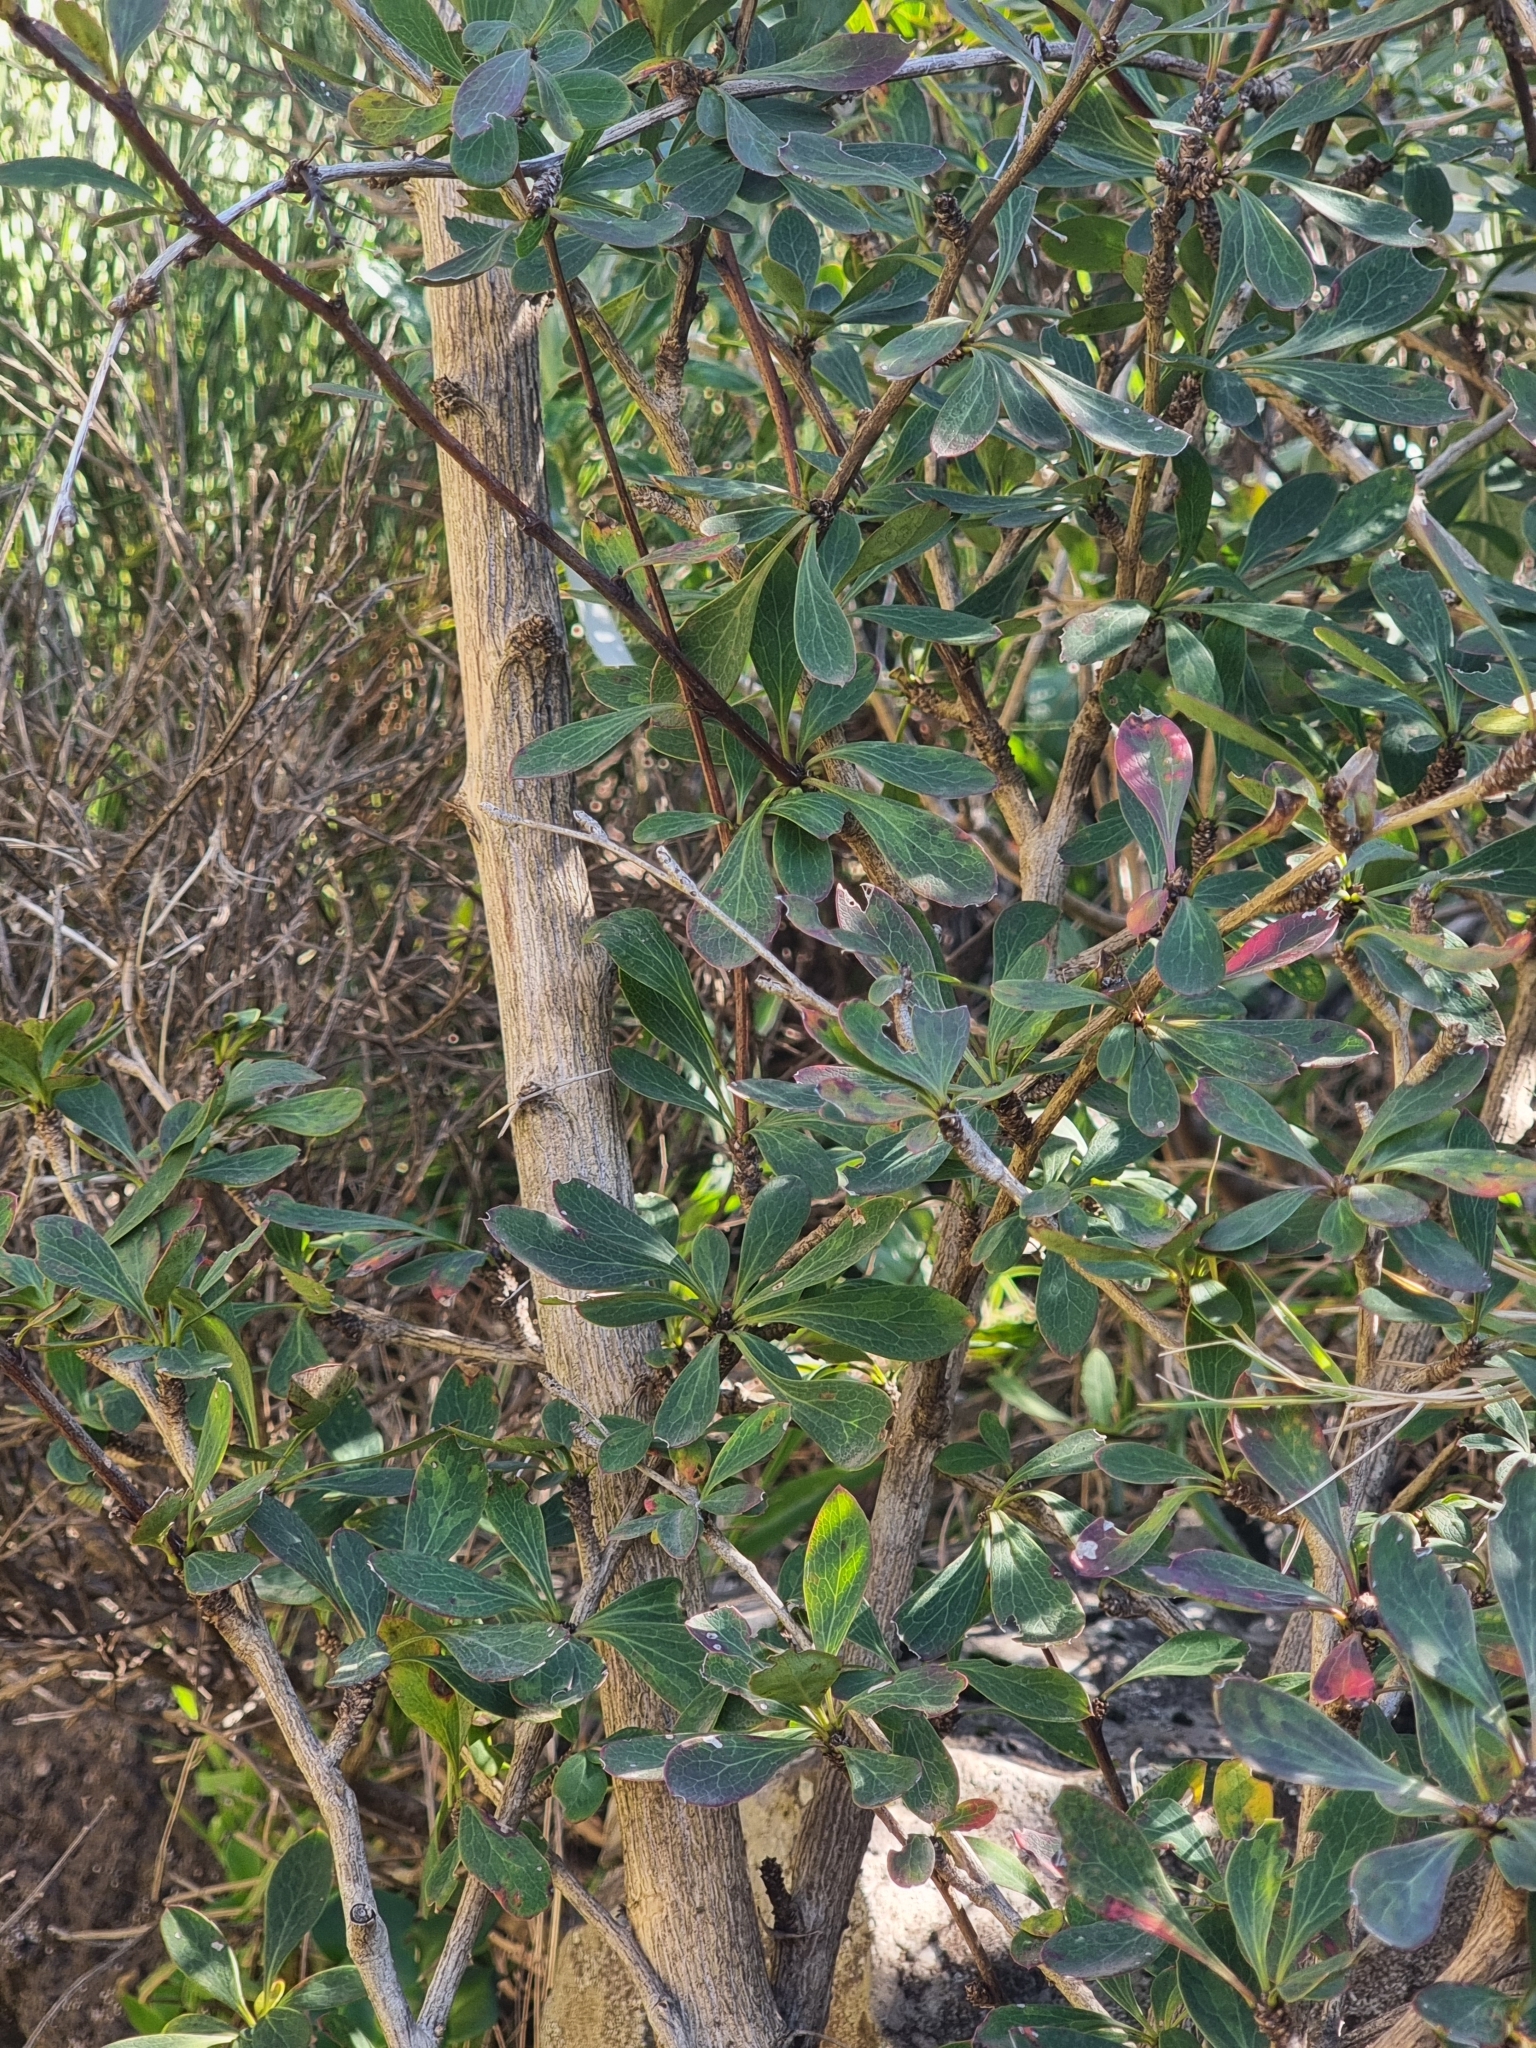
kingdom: Plantae
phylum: Tracheophyta
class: Magnoliopsida
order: Ranunculales
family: Berberidaceae
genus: Berberis
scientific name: Berberis maderensis
